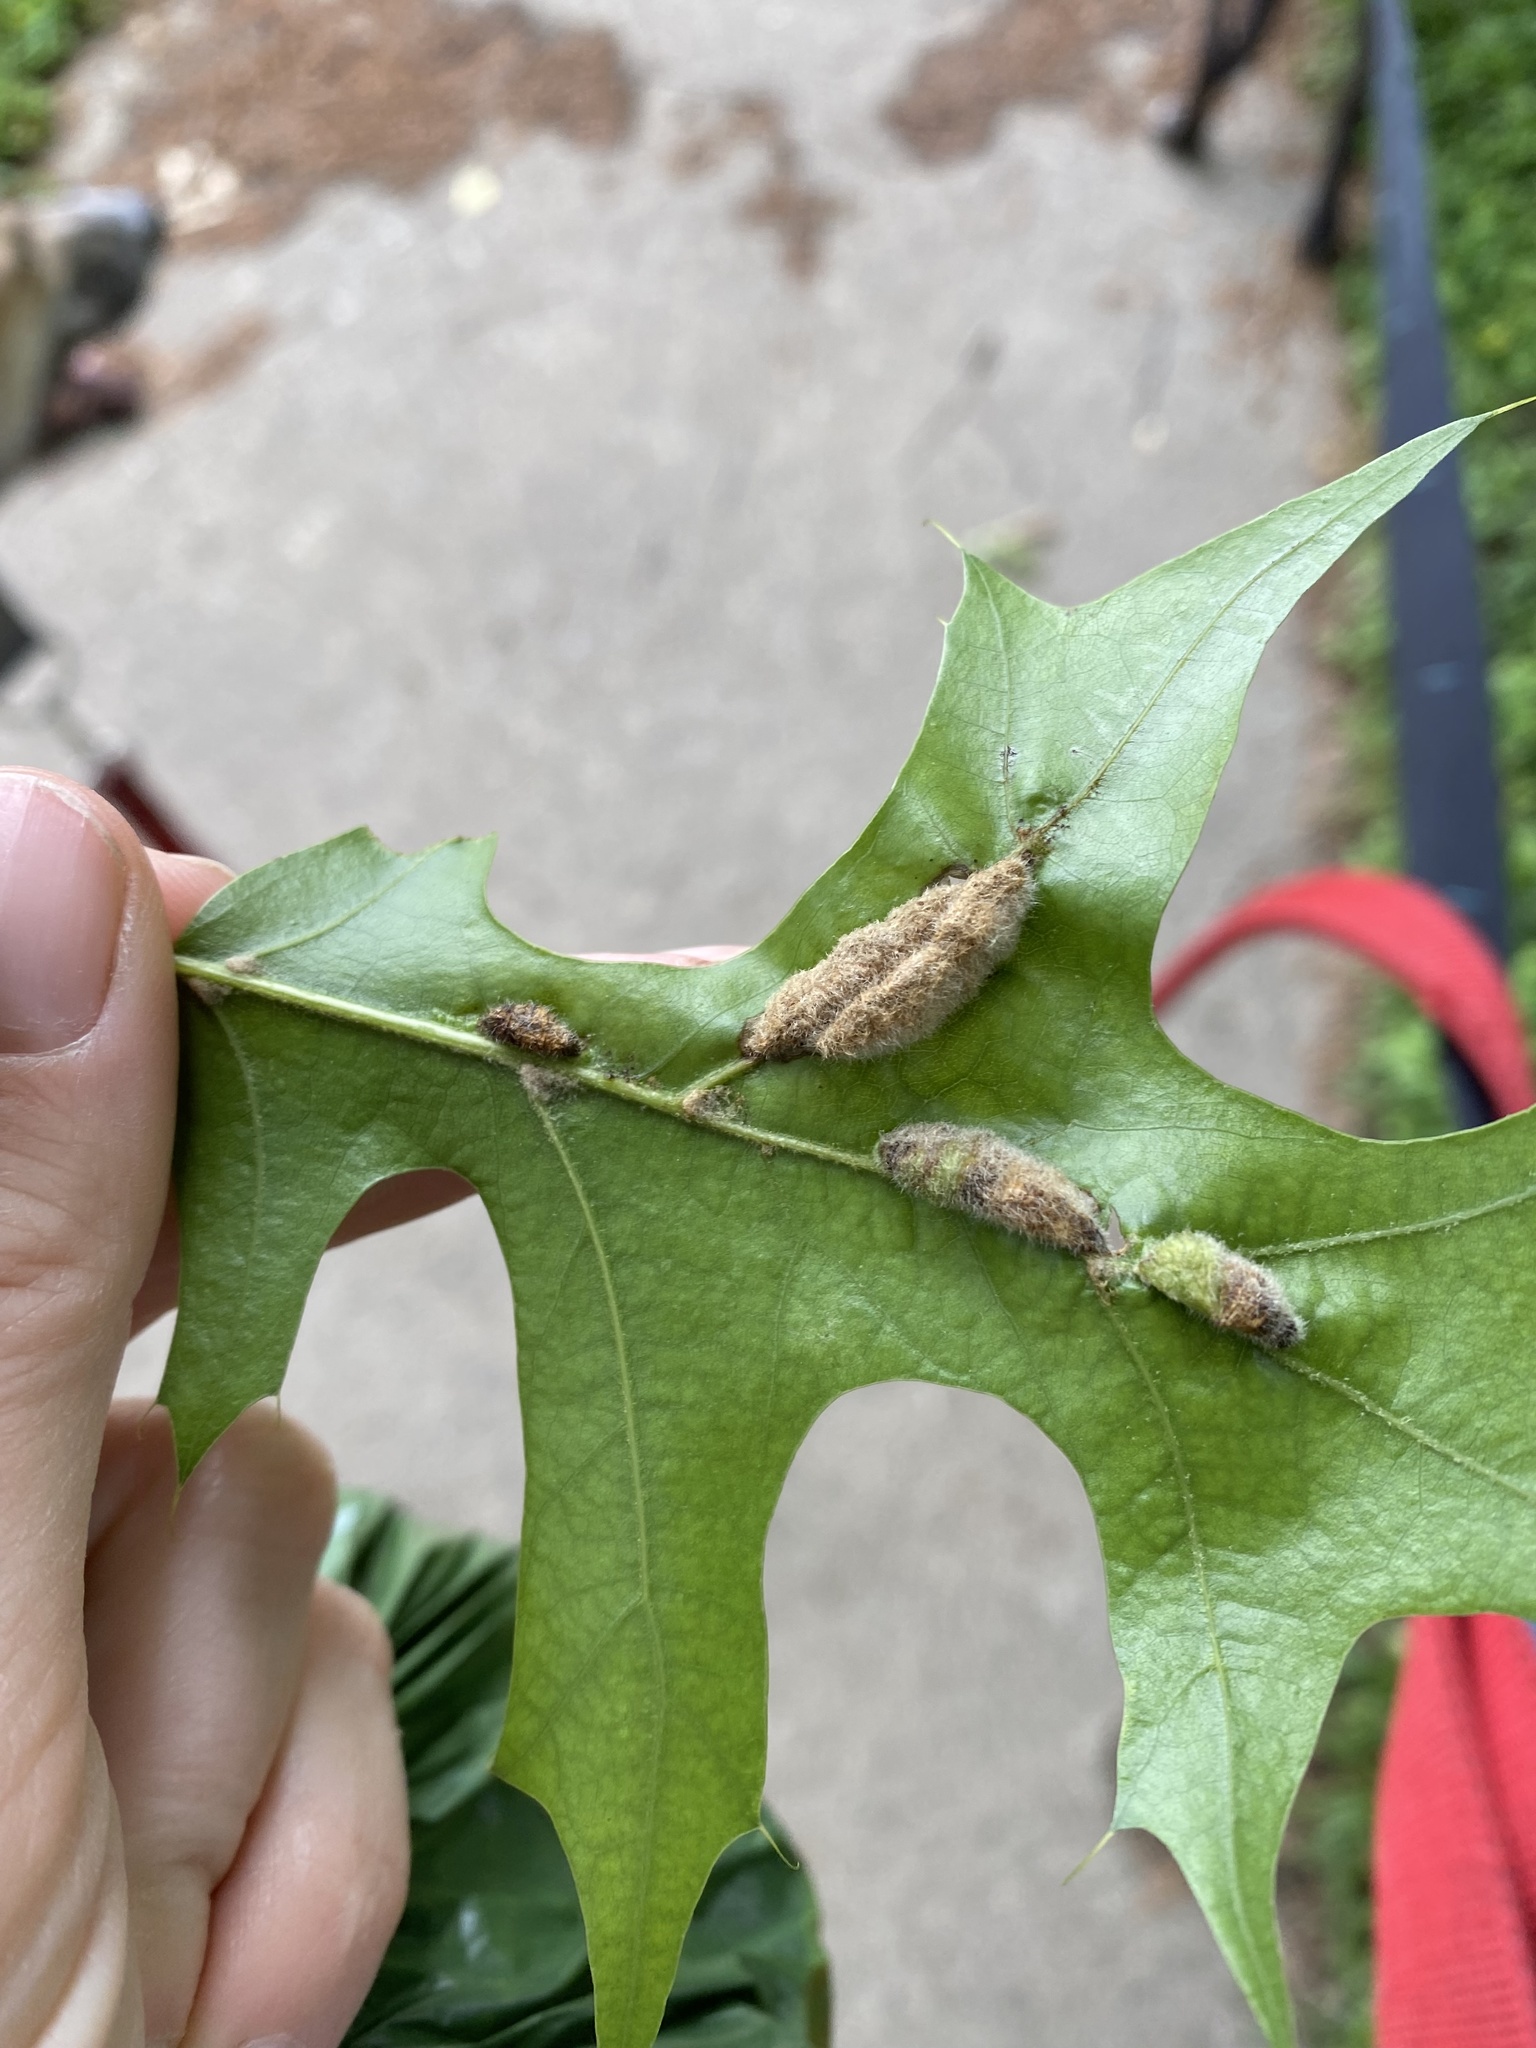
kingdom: Animalia
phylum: Arthropoda
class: Insecta
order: Diptera
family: Cecidomyiidae
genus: Macrodiplosis
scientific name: Macrodiplosis niveipila
